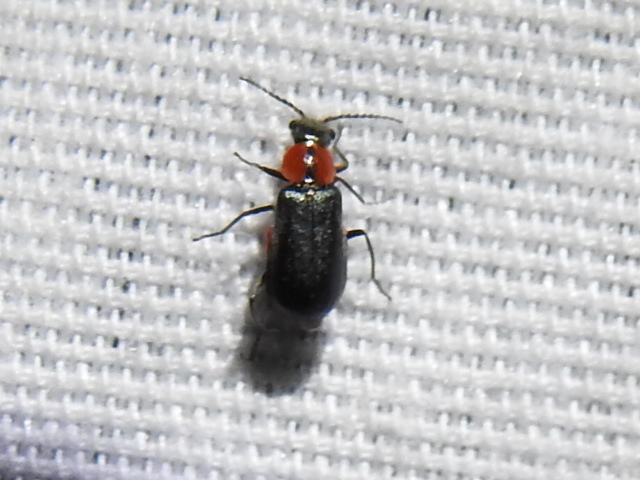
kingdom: Animalia
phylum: Arthropoda
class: Insecta
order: Coleoptera
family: Malachiidae
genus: Attalus
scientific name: Attalus
